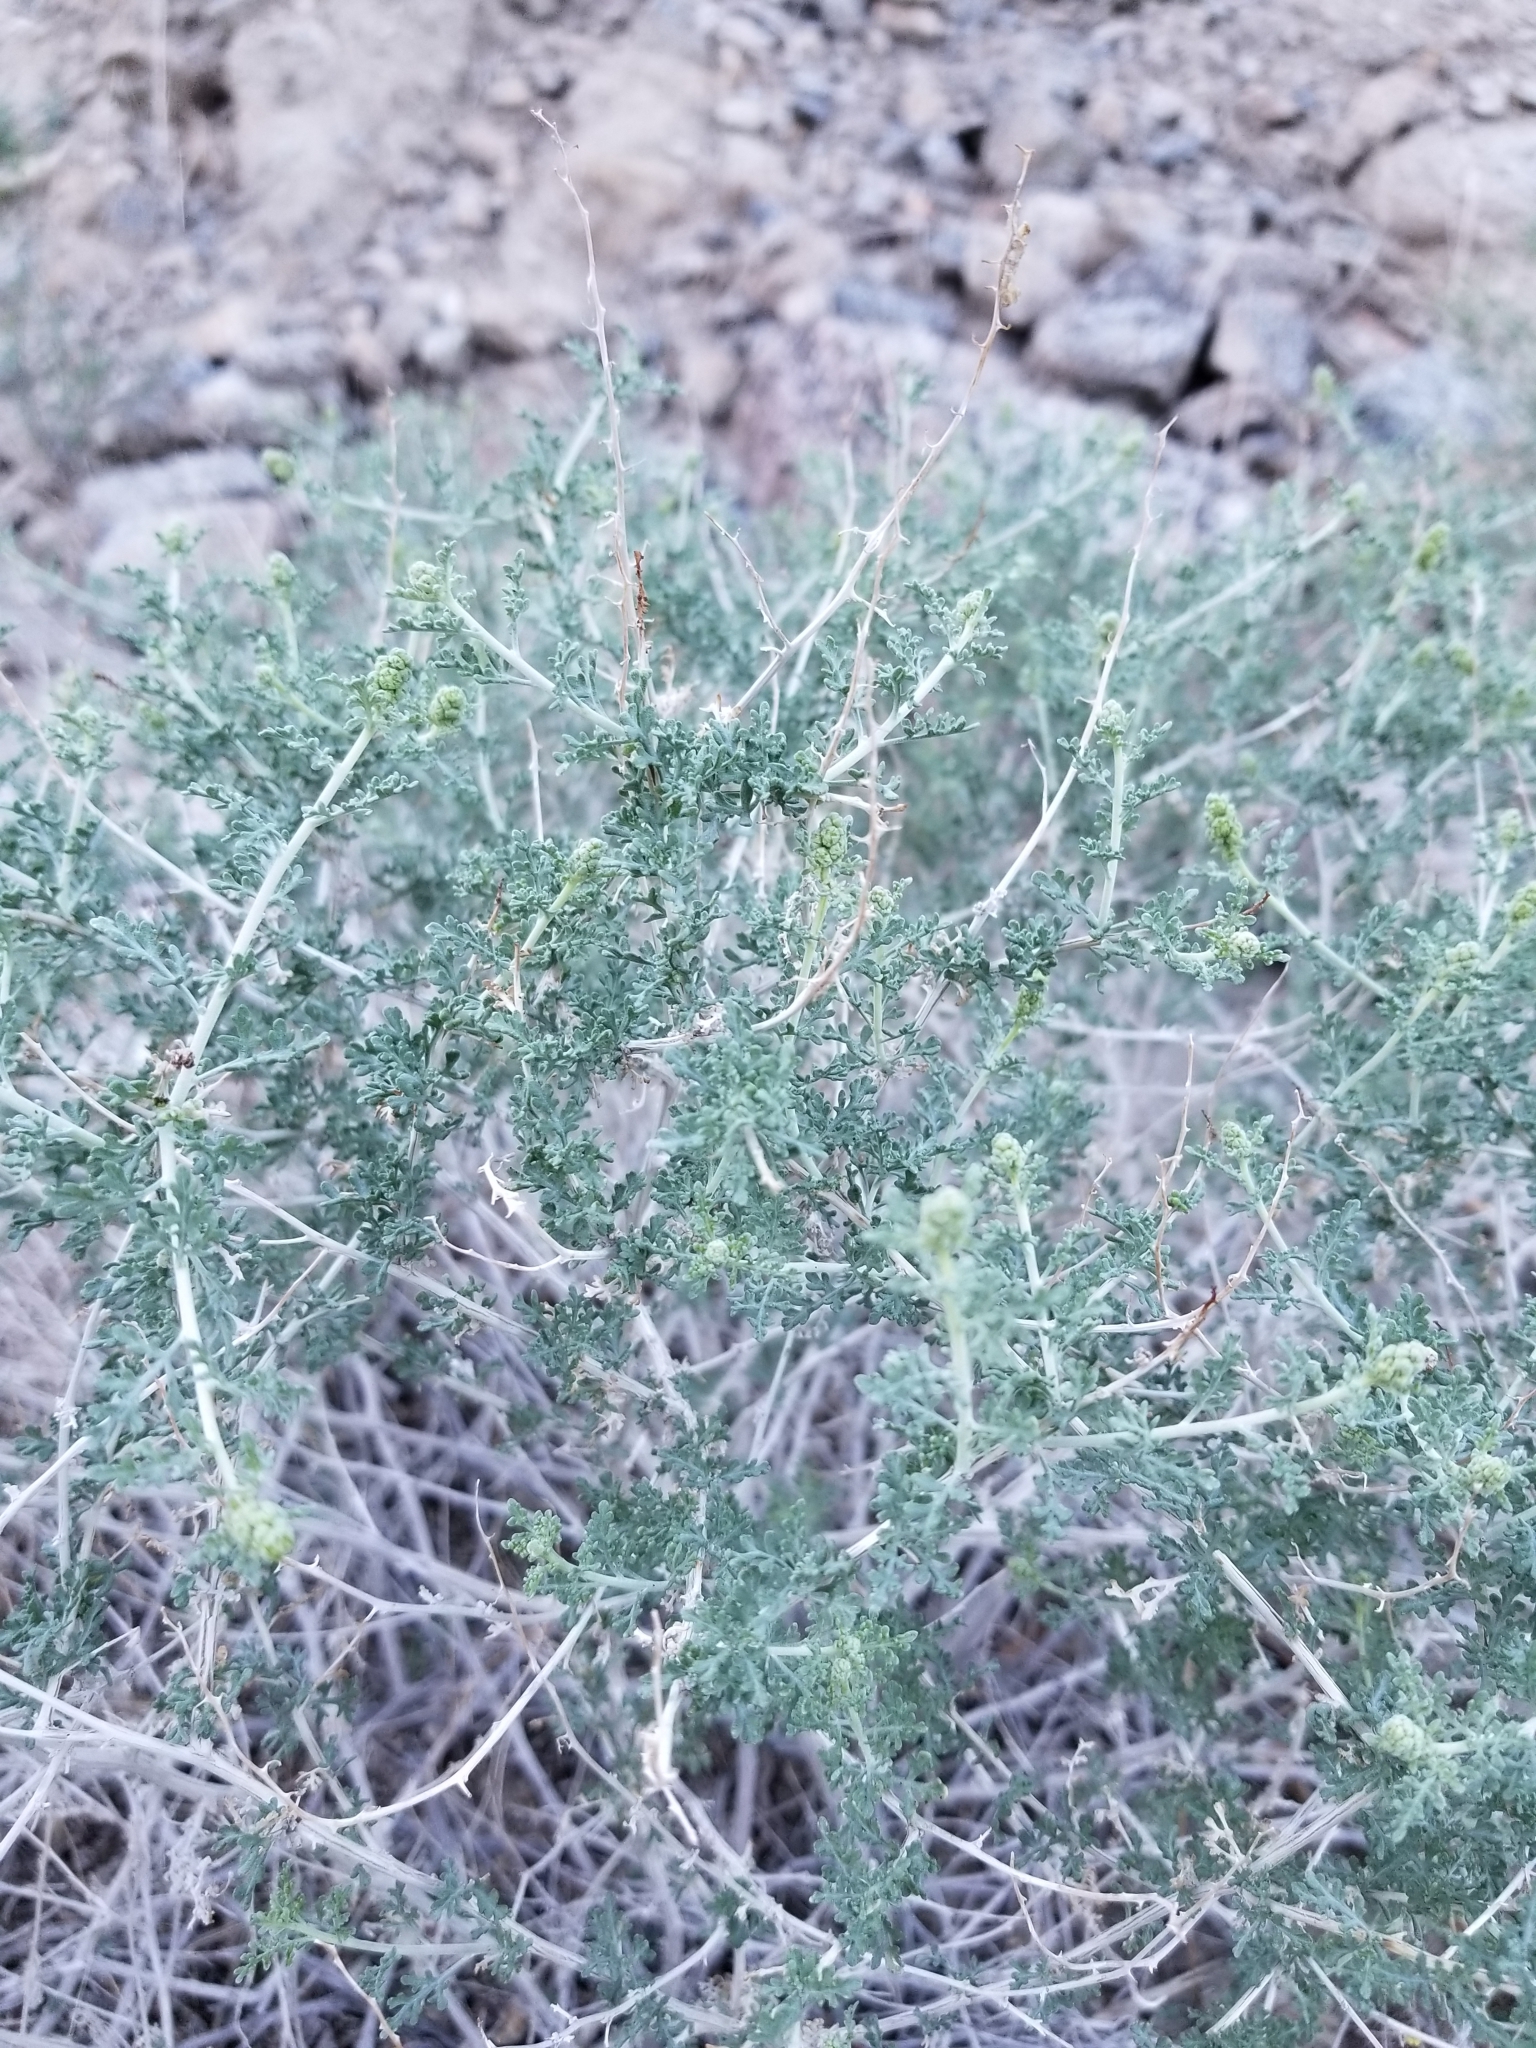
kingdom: Plantae
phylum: Tracheophyta
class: Magnoliopsida
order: Asterales
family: Asteraceae
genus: Ambrosia
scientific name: Ambrosia dumosa
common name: Bur-sage
